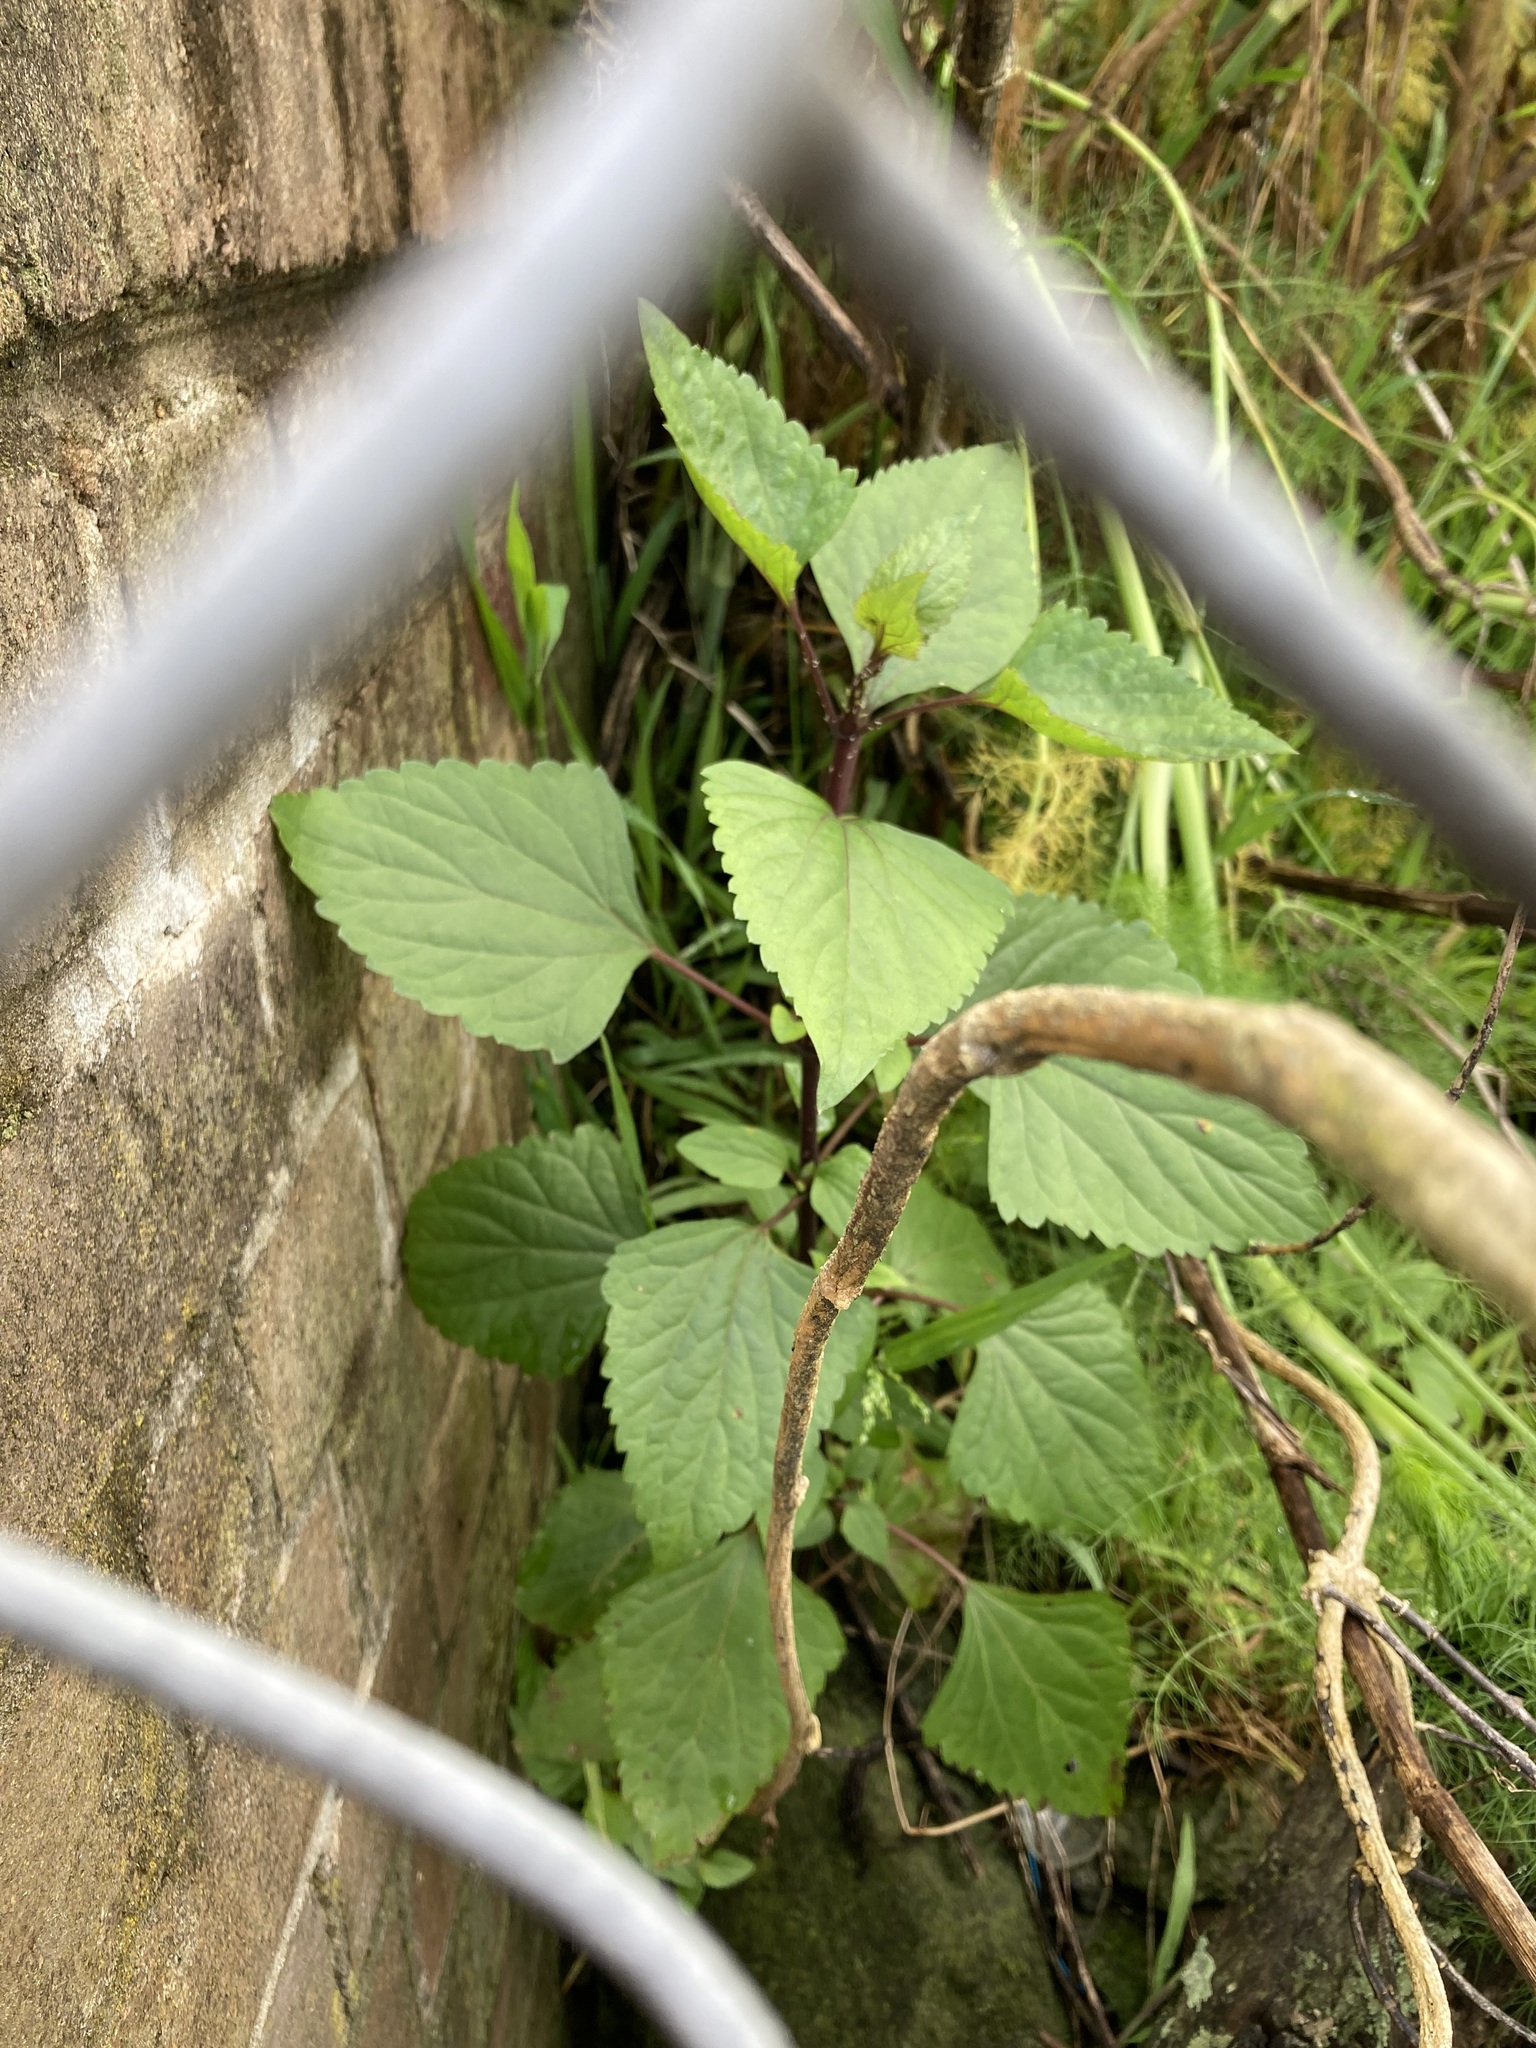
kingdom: Plantae
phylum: Tracheophyta
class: Magnoliopsida
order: Asterales
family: Asteraceae
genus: Ageratina
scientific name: Ageratina adenophora
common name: Sticky snakeroot
